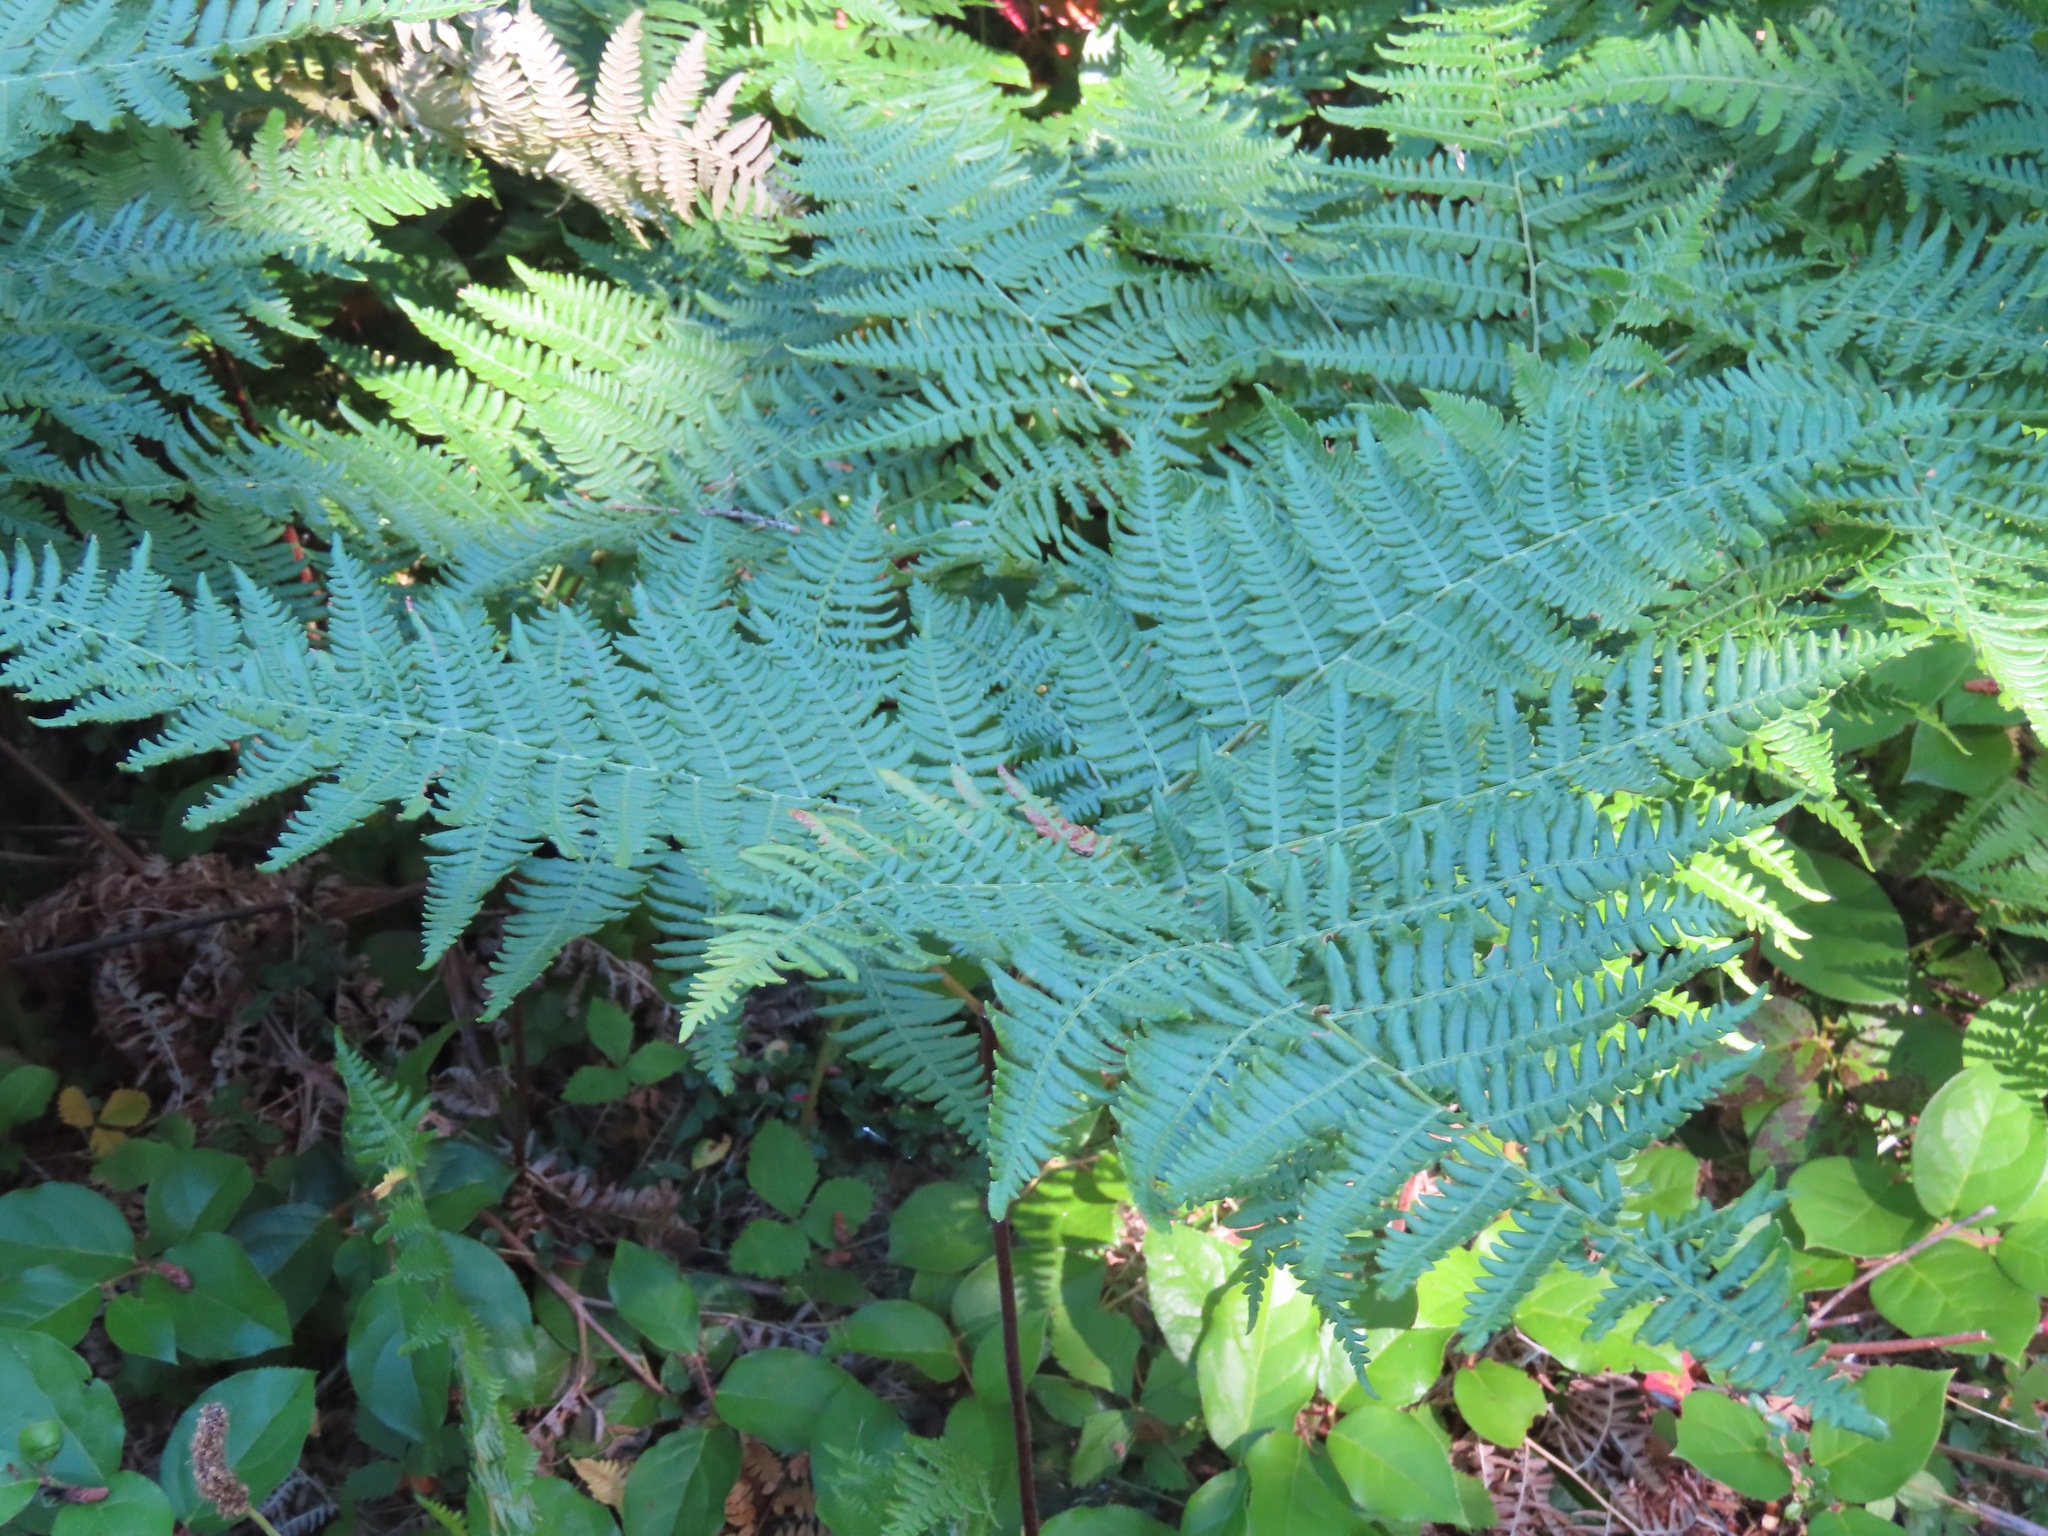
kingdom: Plantae
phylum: Tracheophyta
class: Polypodiopsida
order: Polypodiales
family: Dennstaedtiaceae
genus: Pteridium
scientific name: Pteridium aquilinum
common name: Bracken
